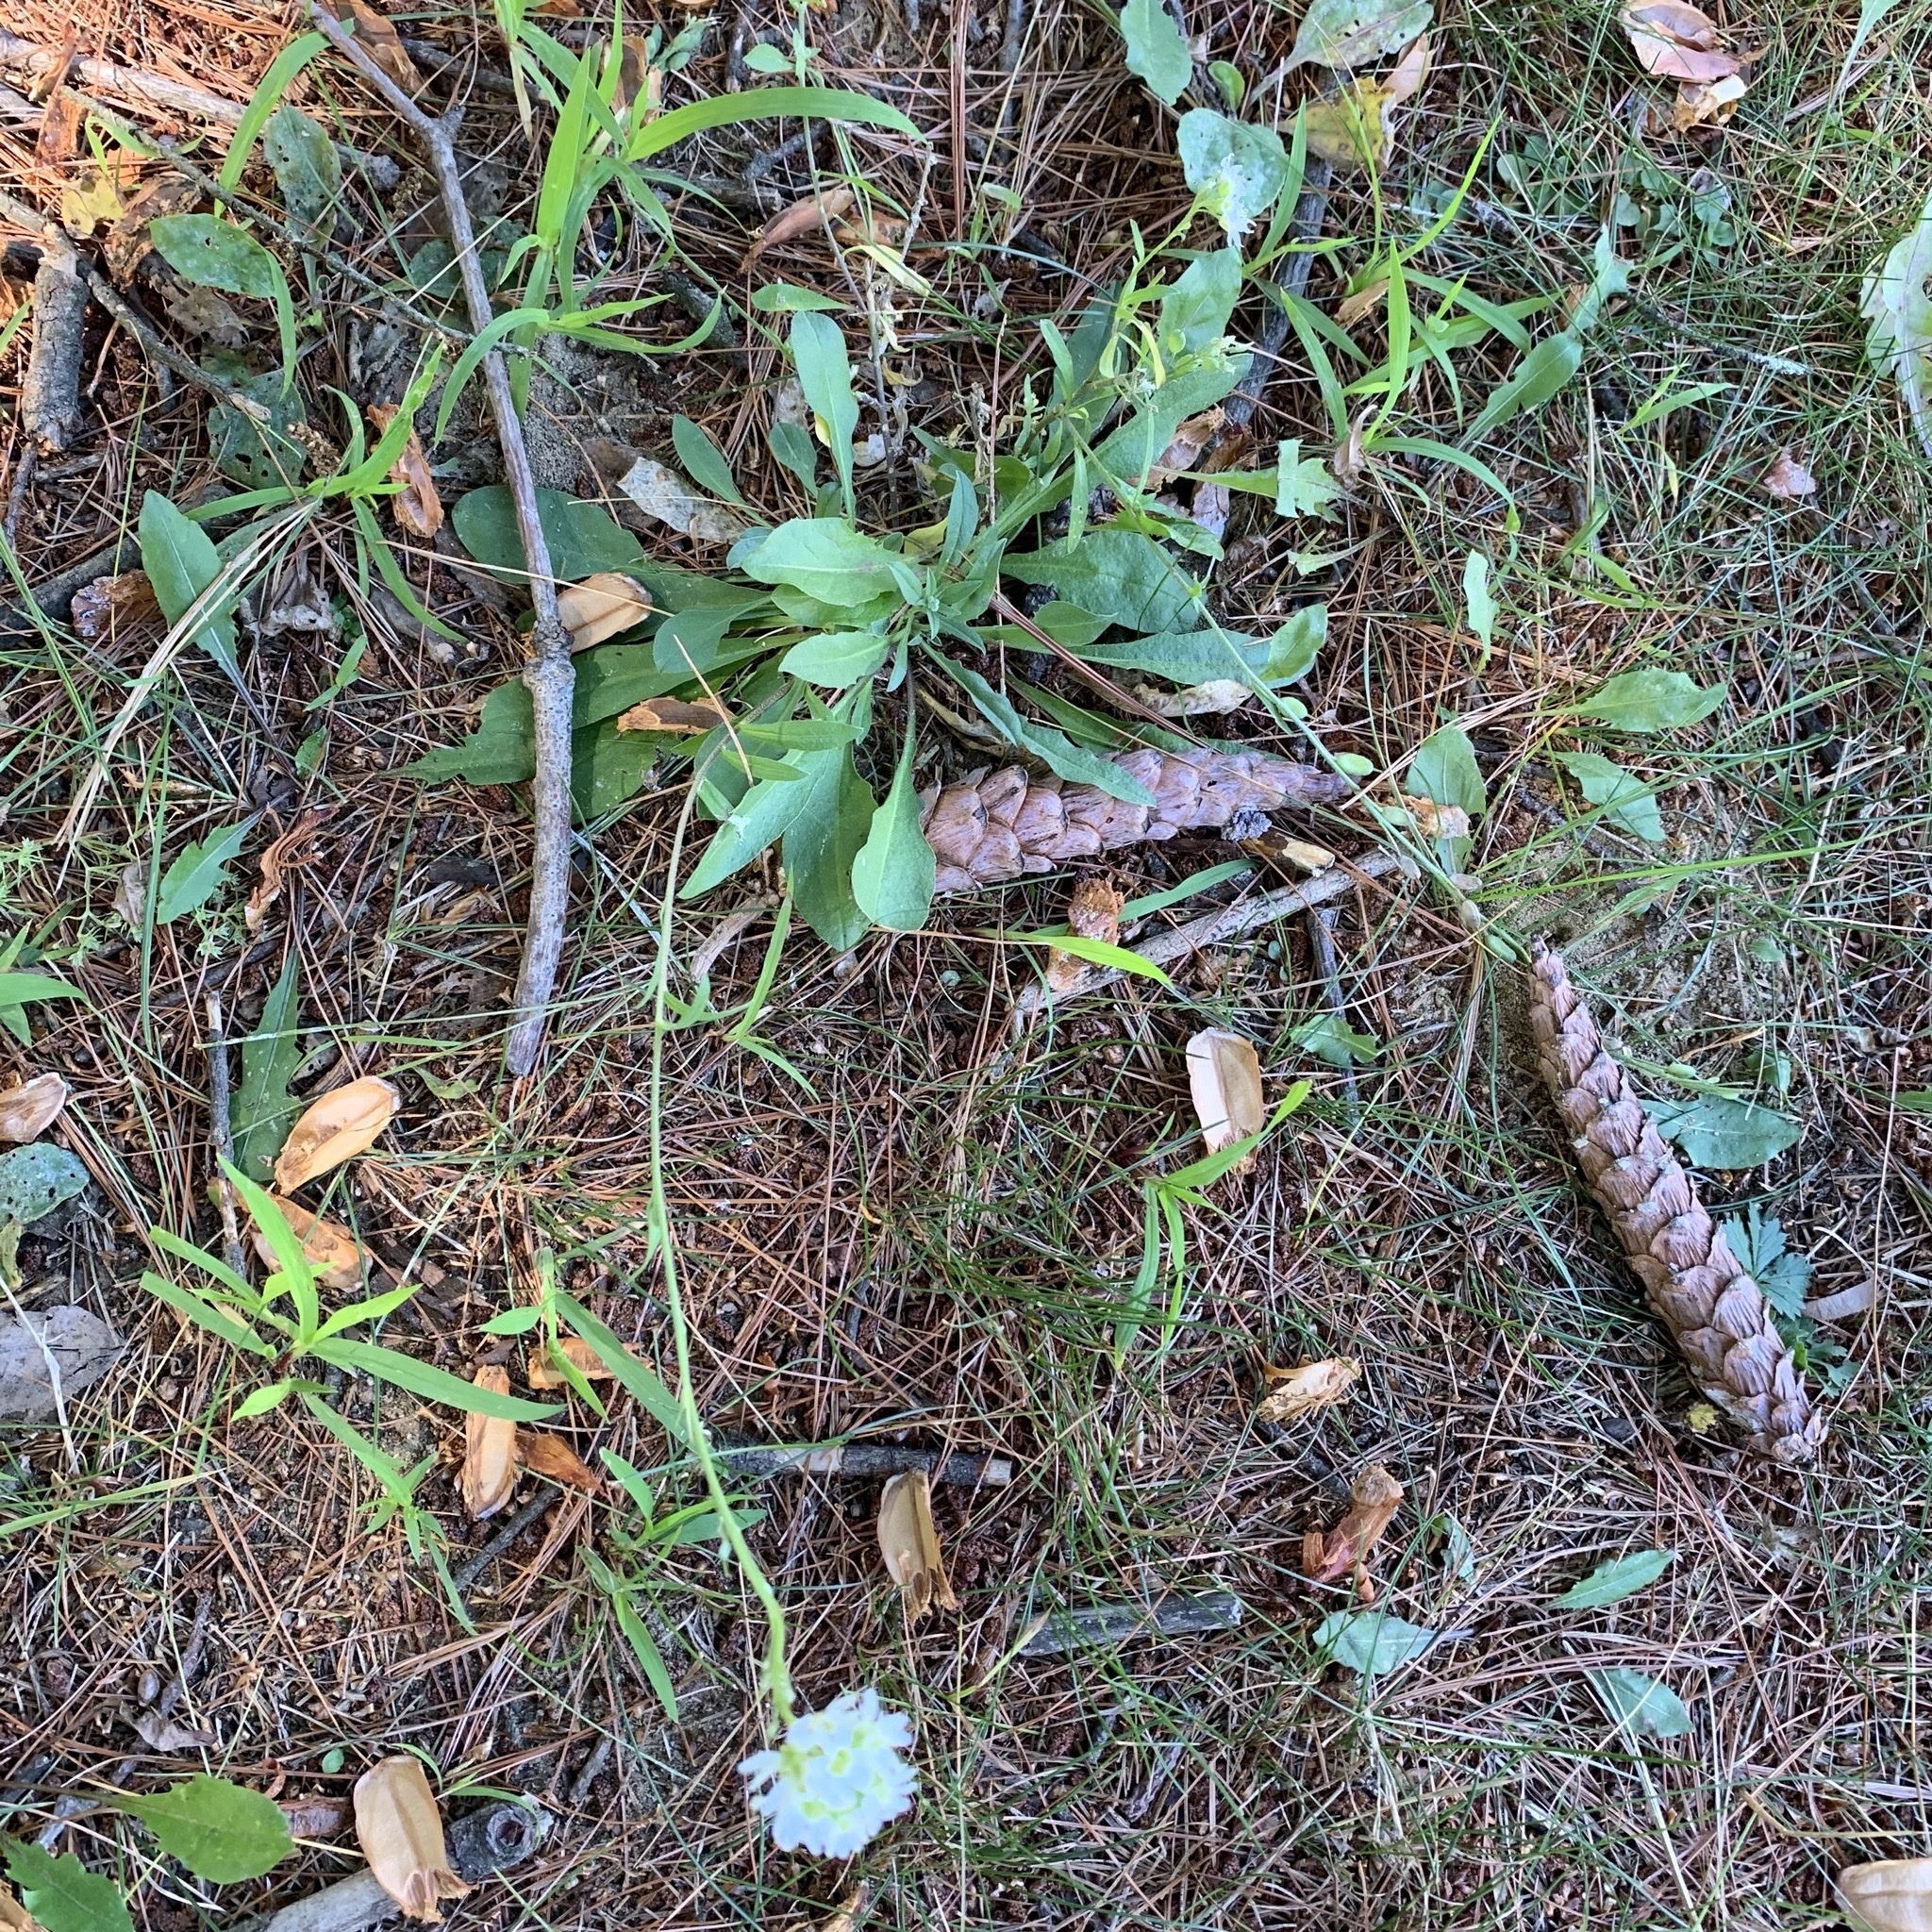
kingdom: Plantae
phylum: Tracheophyta
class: Magnoliopsida
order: Brassicales
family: Brassicaceae
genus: Berteroa
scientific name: Berteroa incana
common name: Hoary alison
